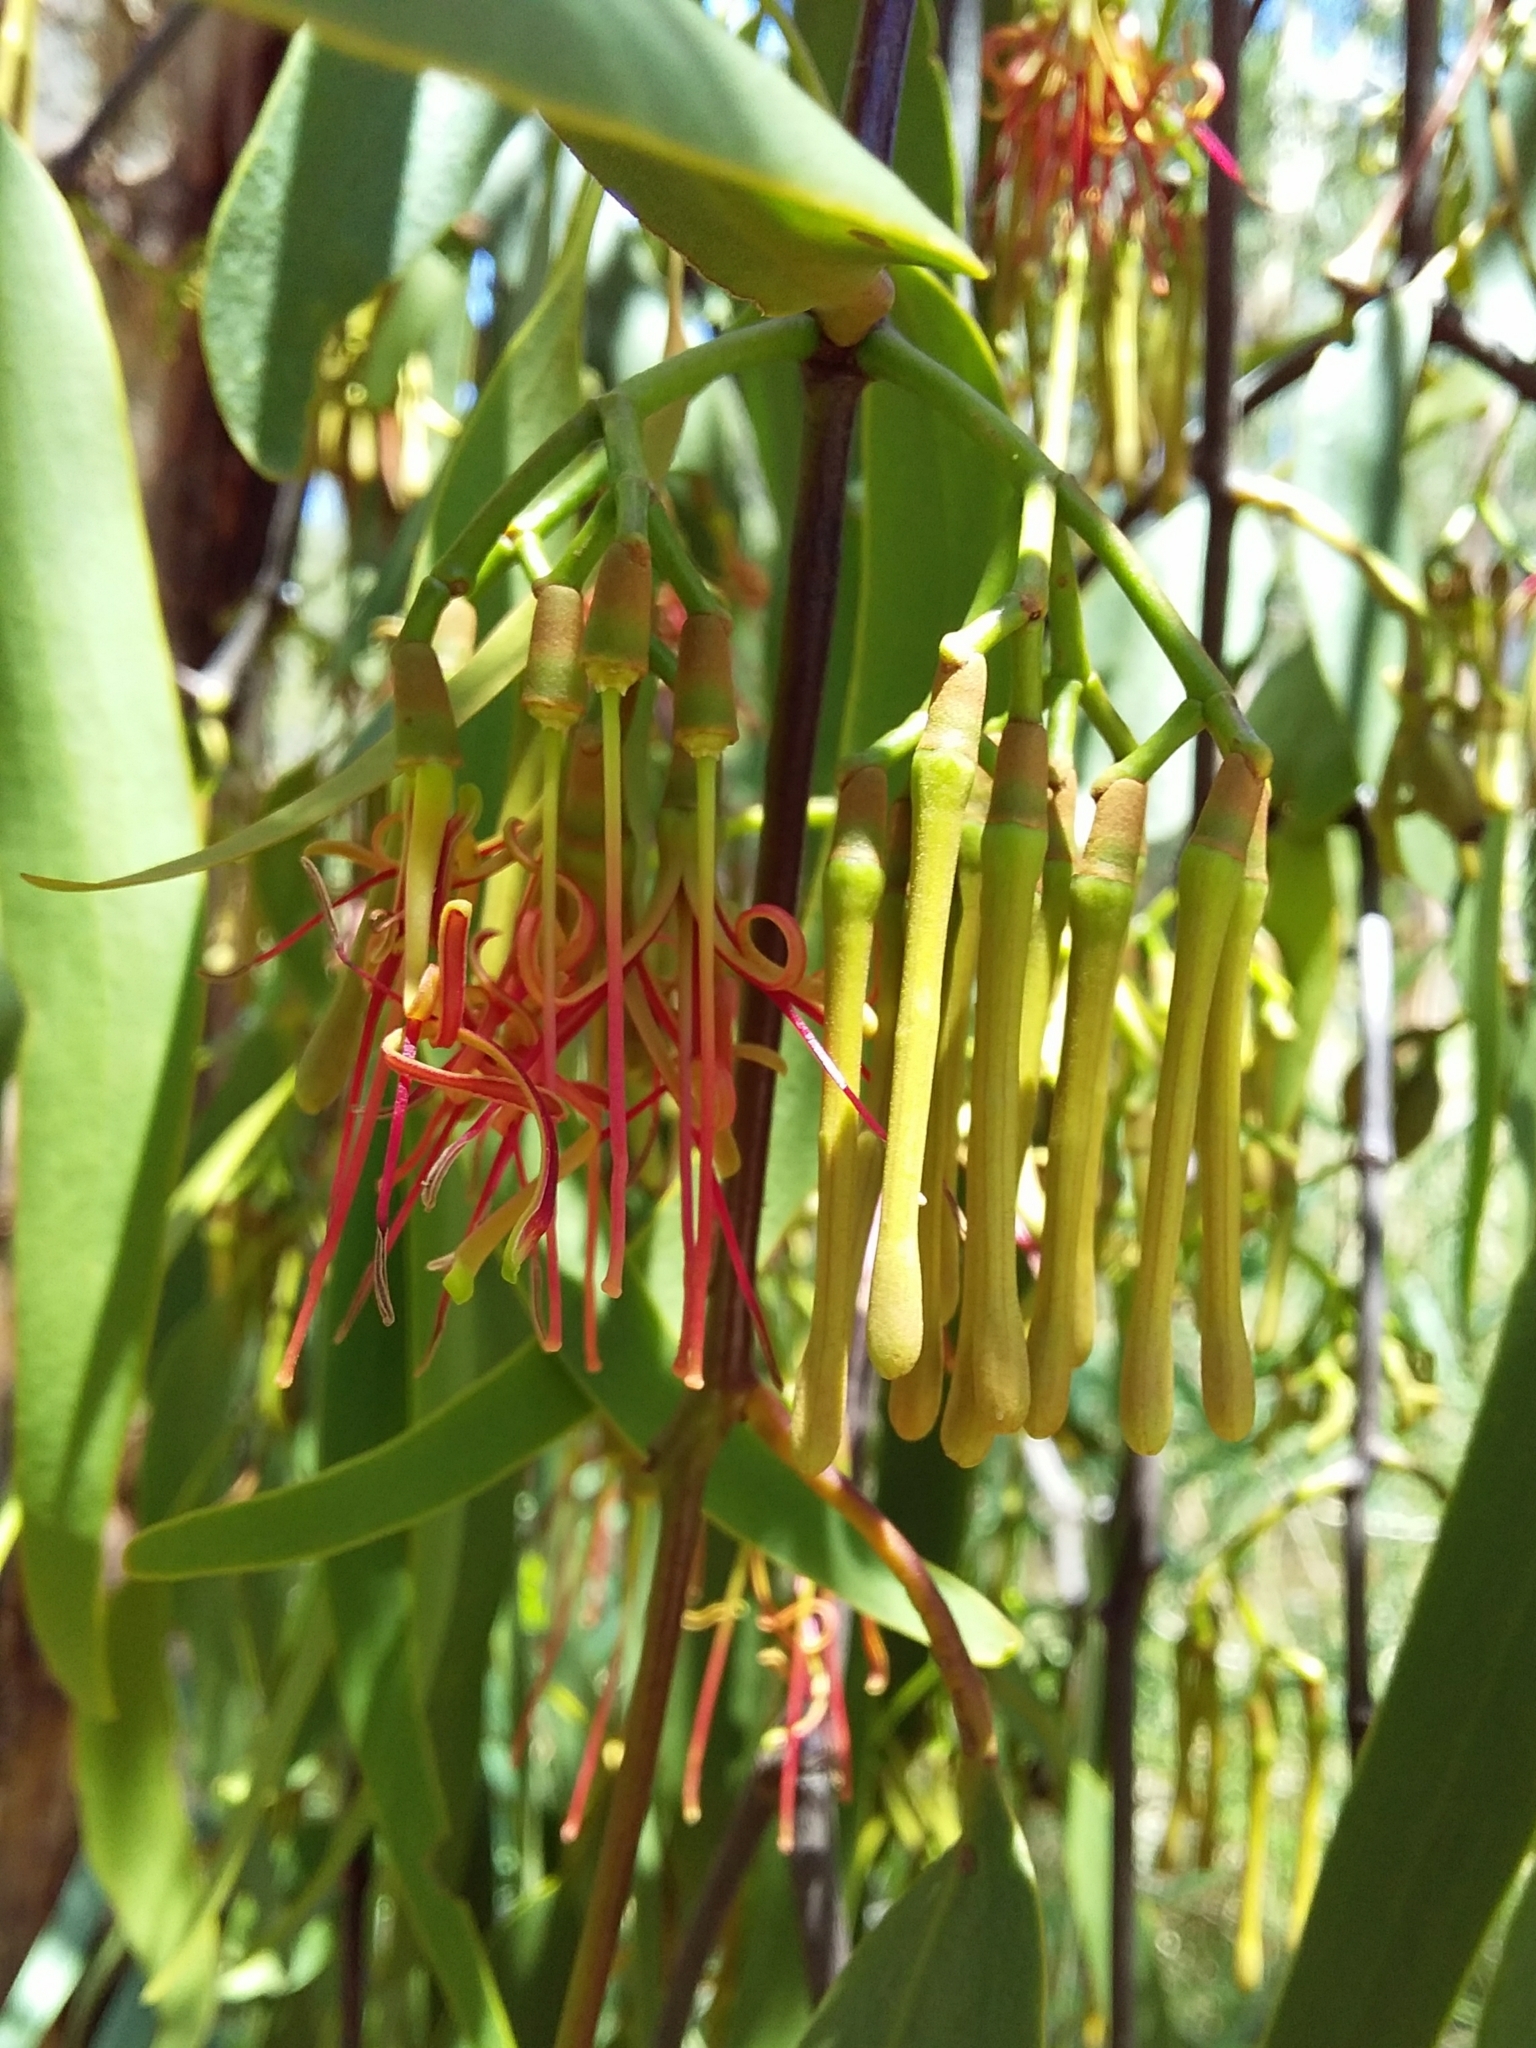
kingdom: Plantae
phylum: Tracheophyta
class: Magnoliopsida
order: Santalales
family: Loranthaceae
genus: Amyema
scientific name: Amyema miquelii
